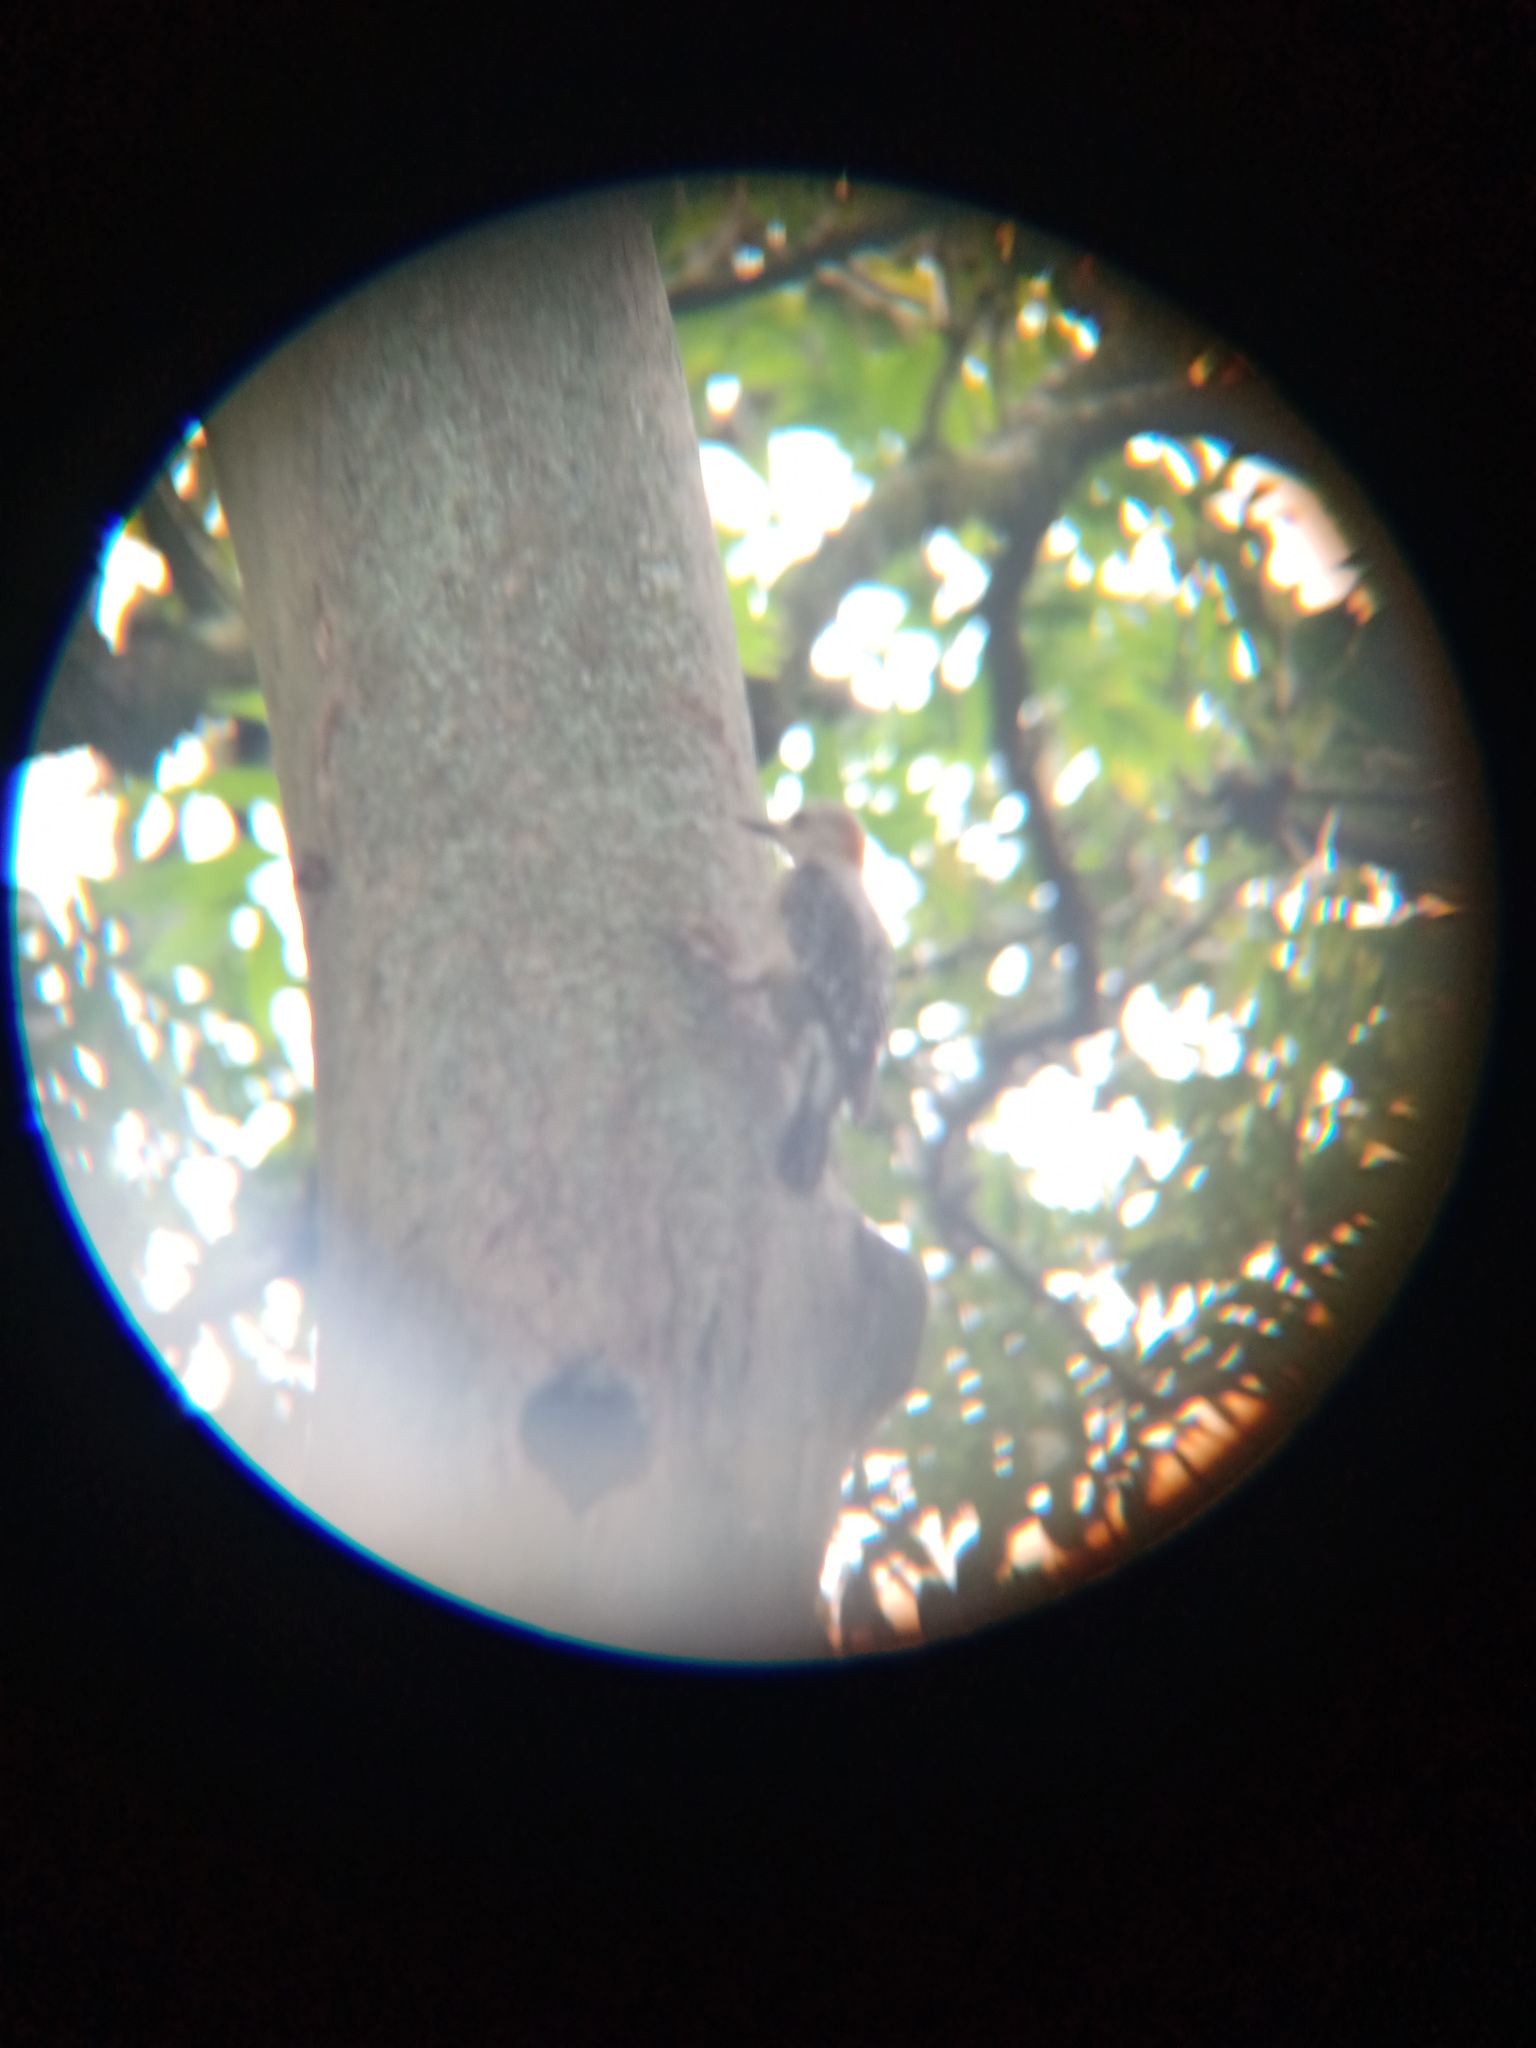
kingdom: Animalia
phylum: Chordata
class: Aves
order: Piciformes
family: Picidae
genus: Melanerpes
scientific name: Melanerpes rubricapillus
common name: Red-crowned woodpecker
